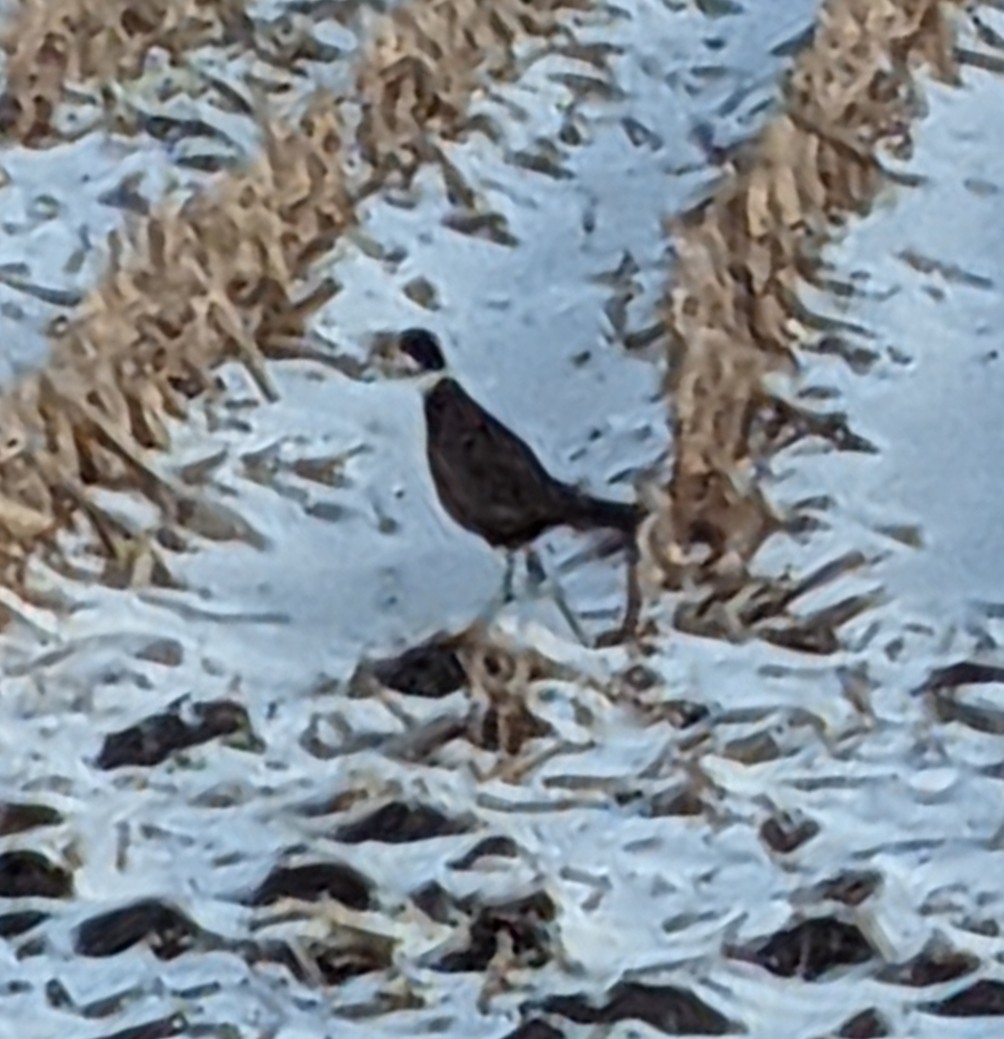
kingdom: Animalia
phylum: Chordata
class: Aves
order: Galliformes
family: Phasianidae
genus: Phasianus
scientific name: Phasianus colchicus
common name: Common pheasant
